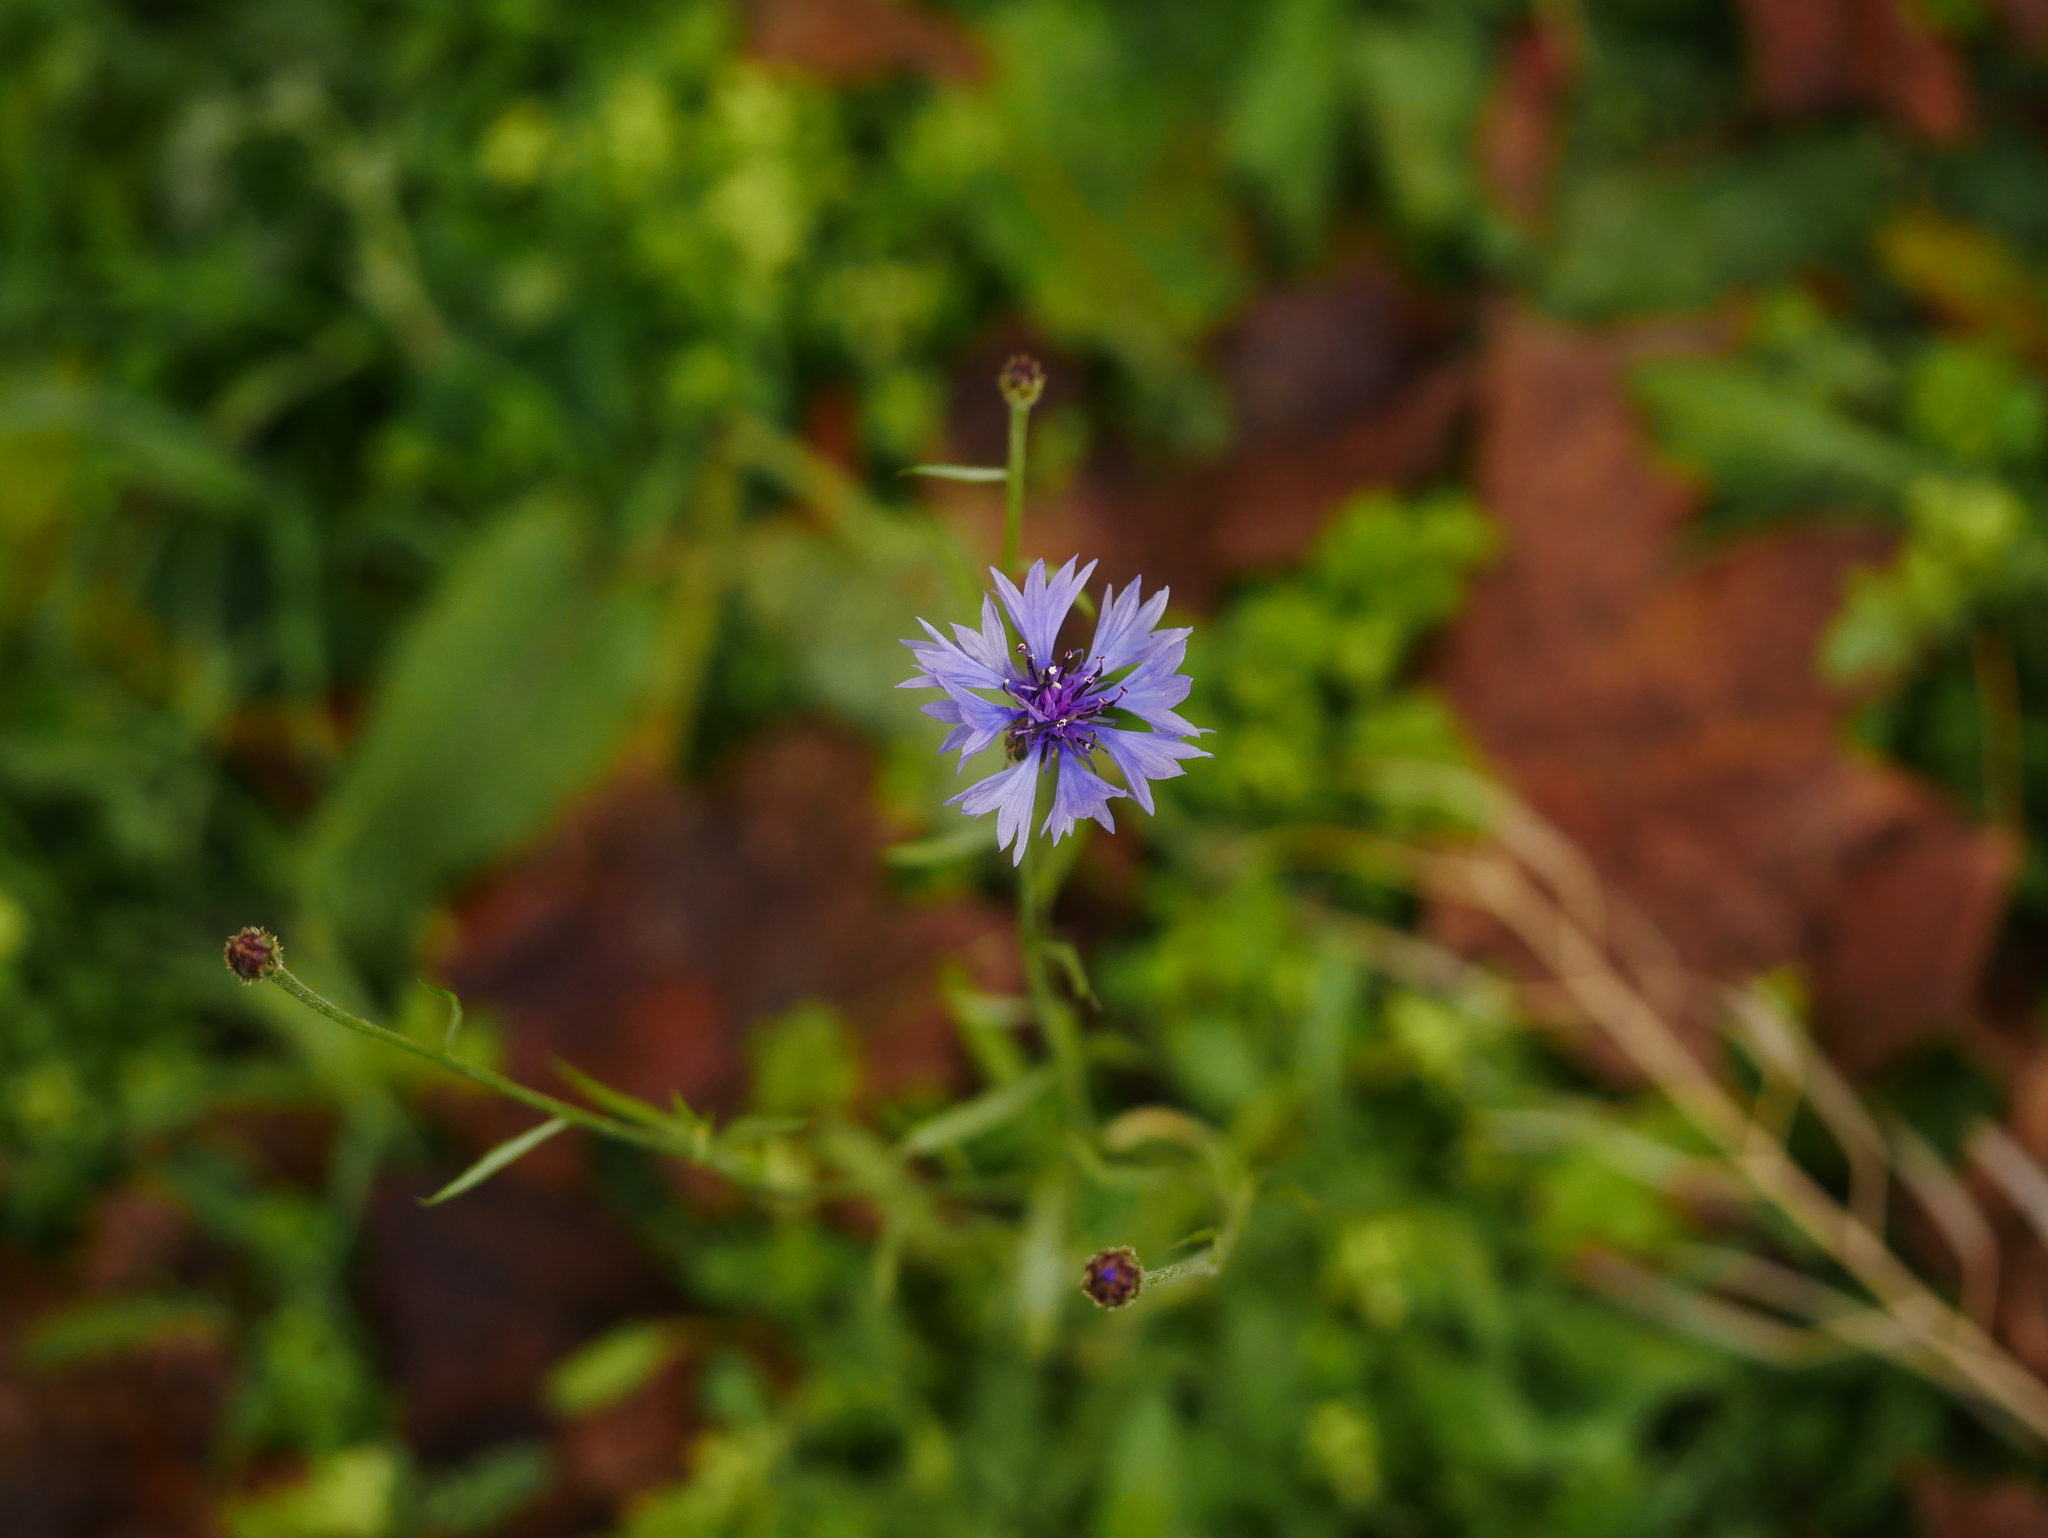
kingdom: Plantae
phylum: Tracheophyta
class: Magnoliopsida
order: Asterales
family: Asteraceae
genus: Centaurea
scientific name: Centaurea cyanus
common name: Cornflower
